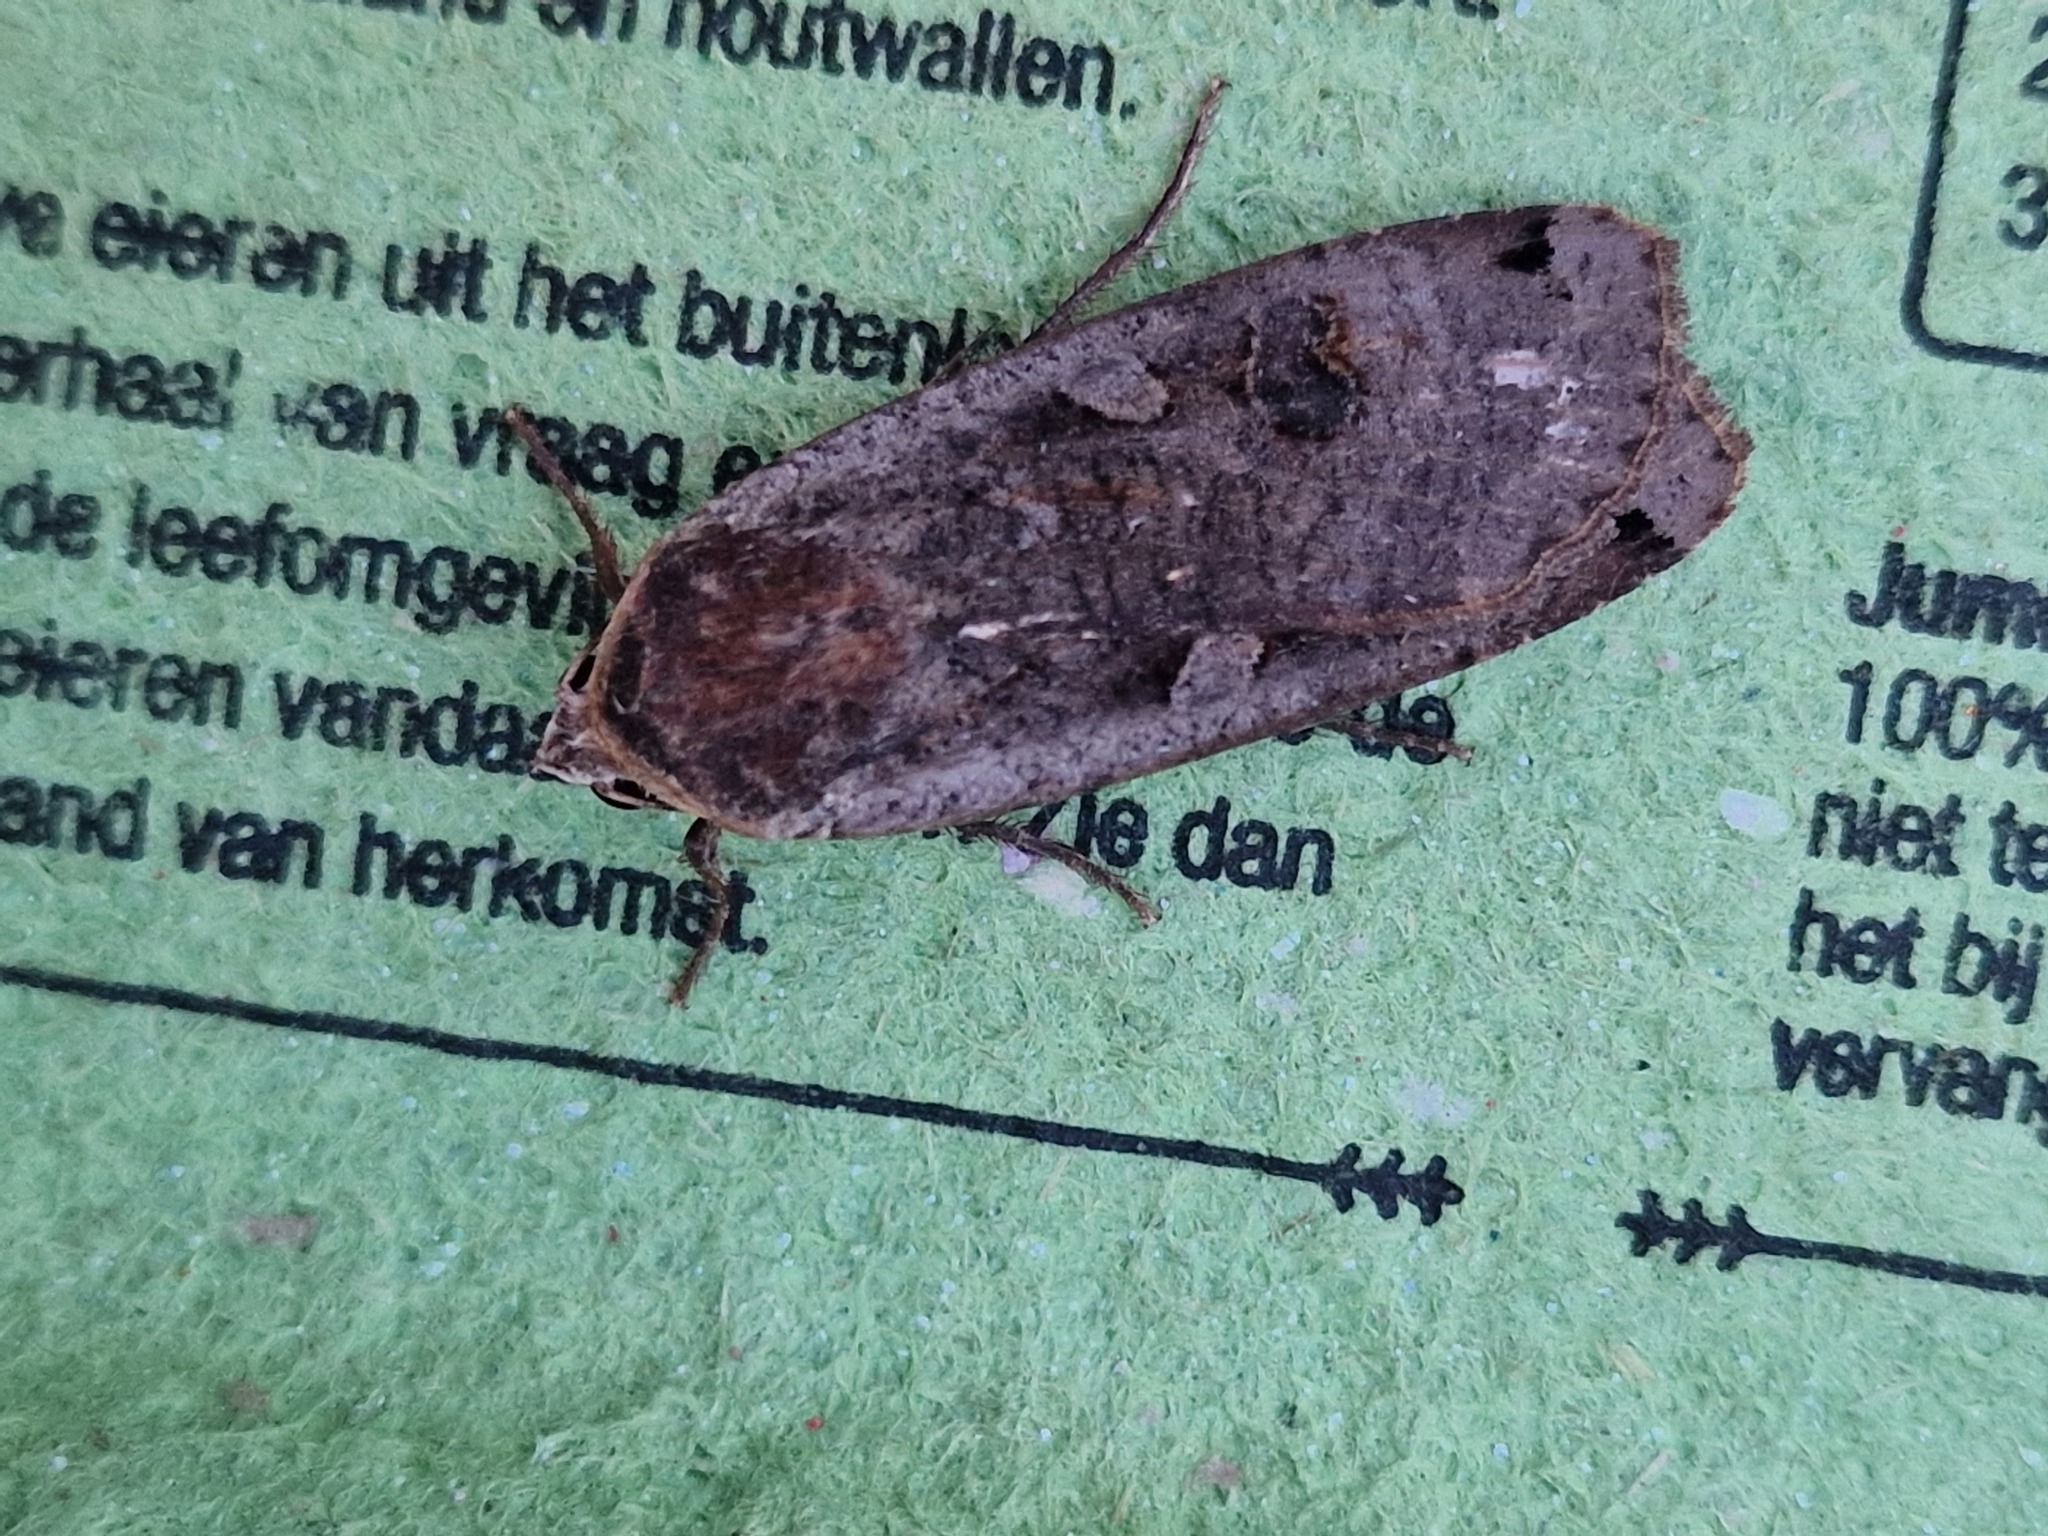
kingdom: Animalia
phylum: Arthropoda
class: Insecta
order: Lepidoptera
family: Noctuidae
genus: Noctua
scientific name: Noctua pronuba
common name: Large yellow underwing
